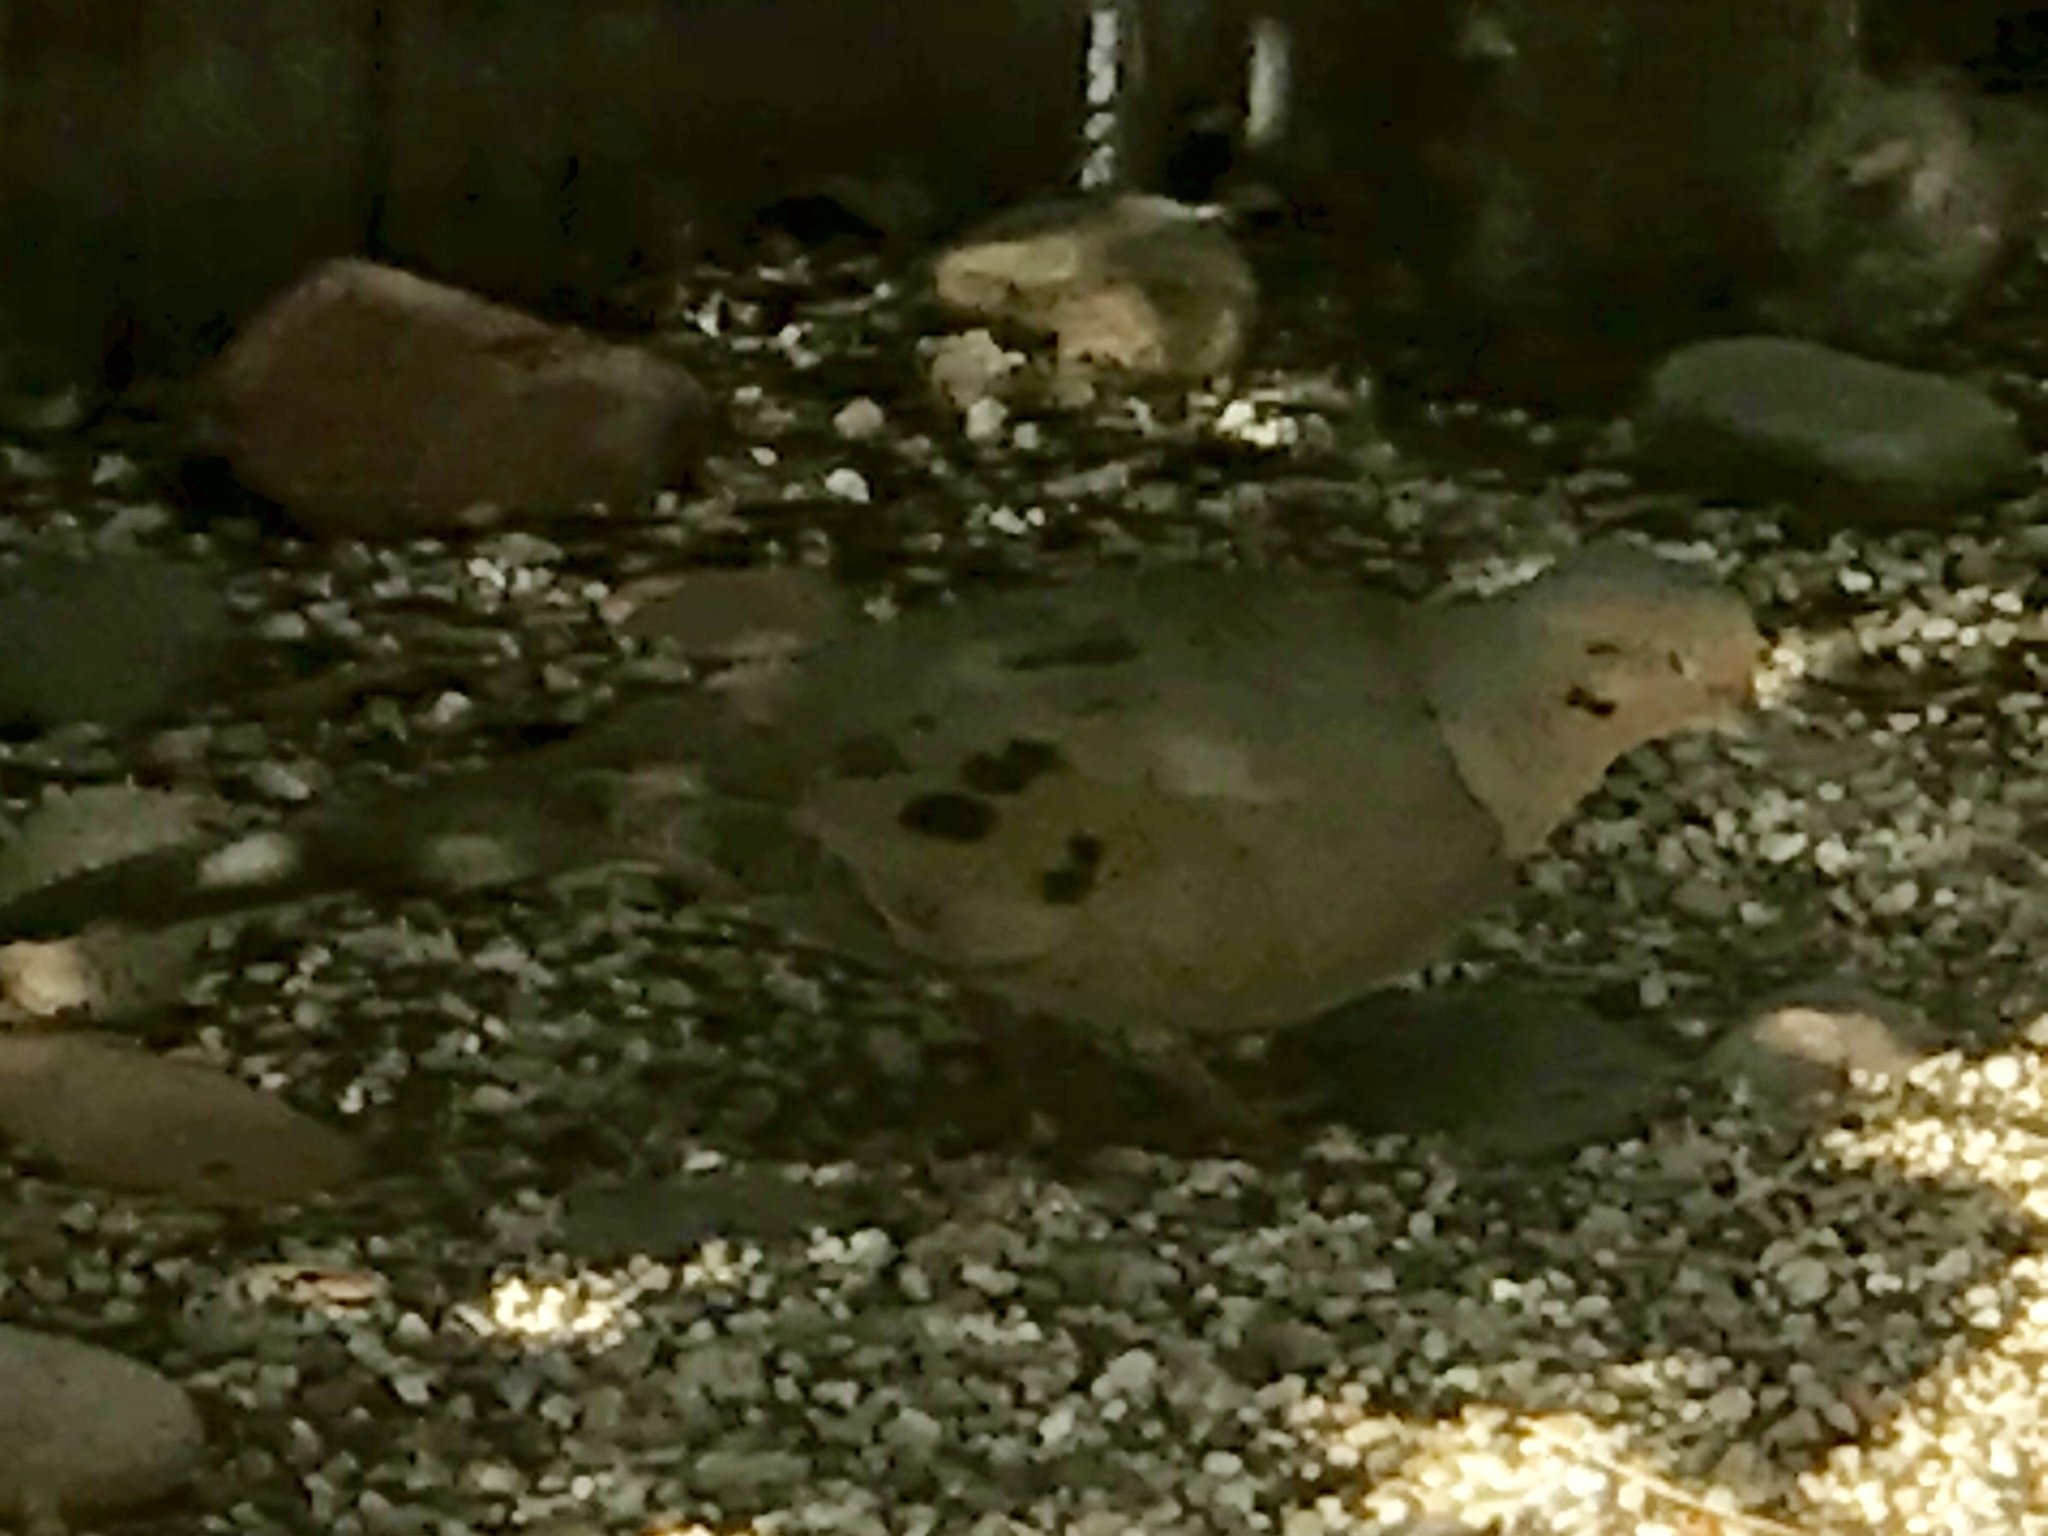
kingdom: Animalia
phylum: Chordata
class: Aves
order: Columbiformes
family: Columbidae
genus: Zenaida
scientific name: Zenaida macroura
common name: Mourning dove
